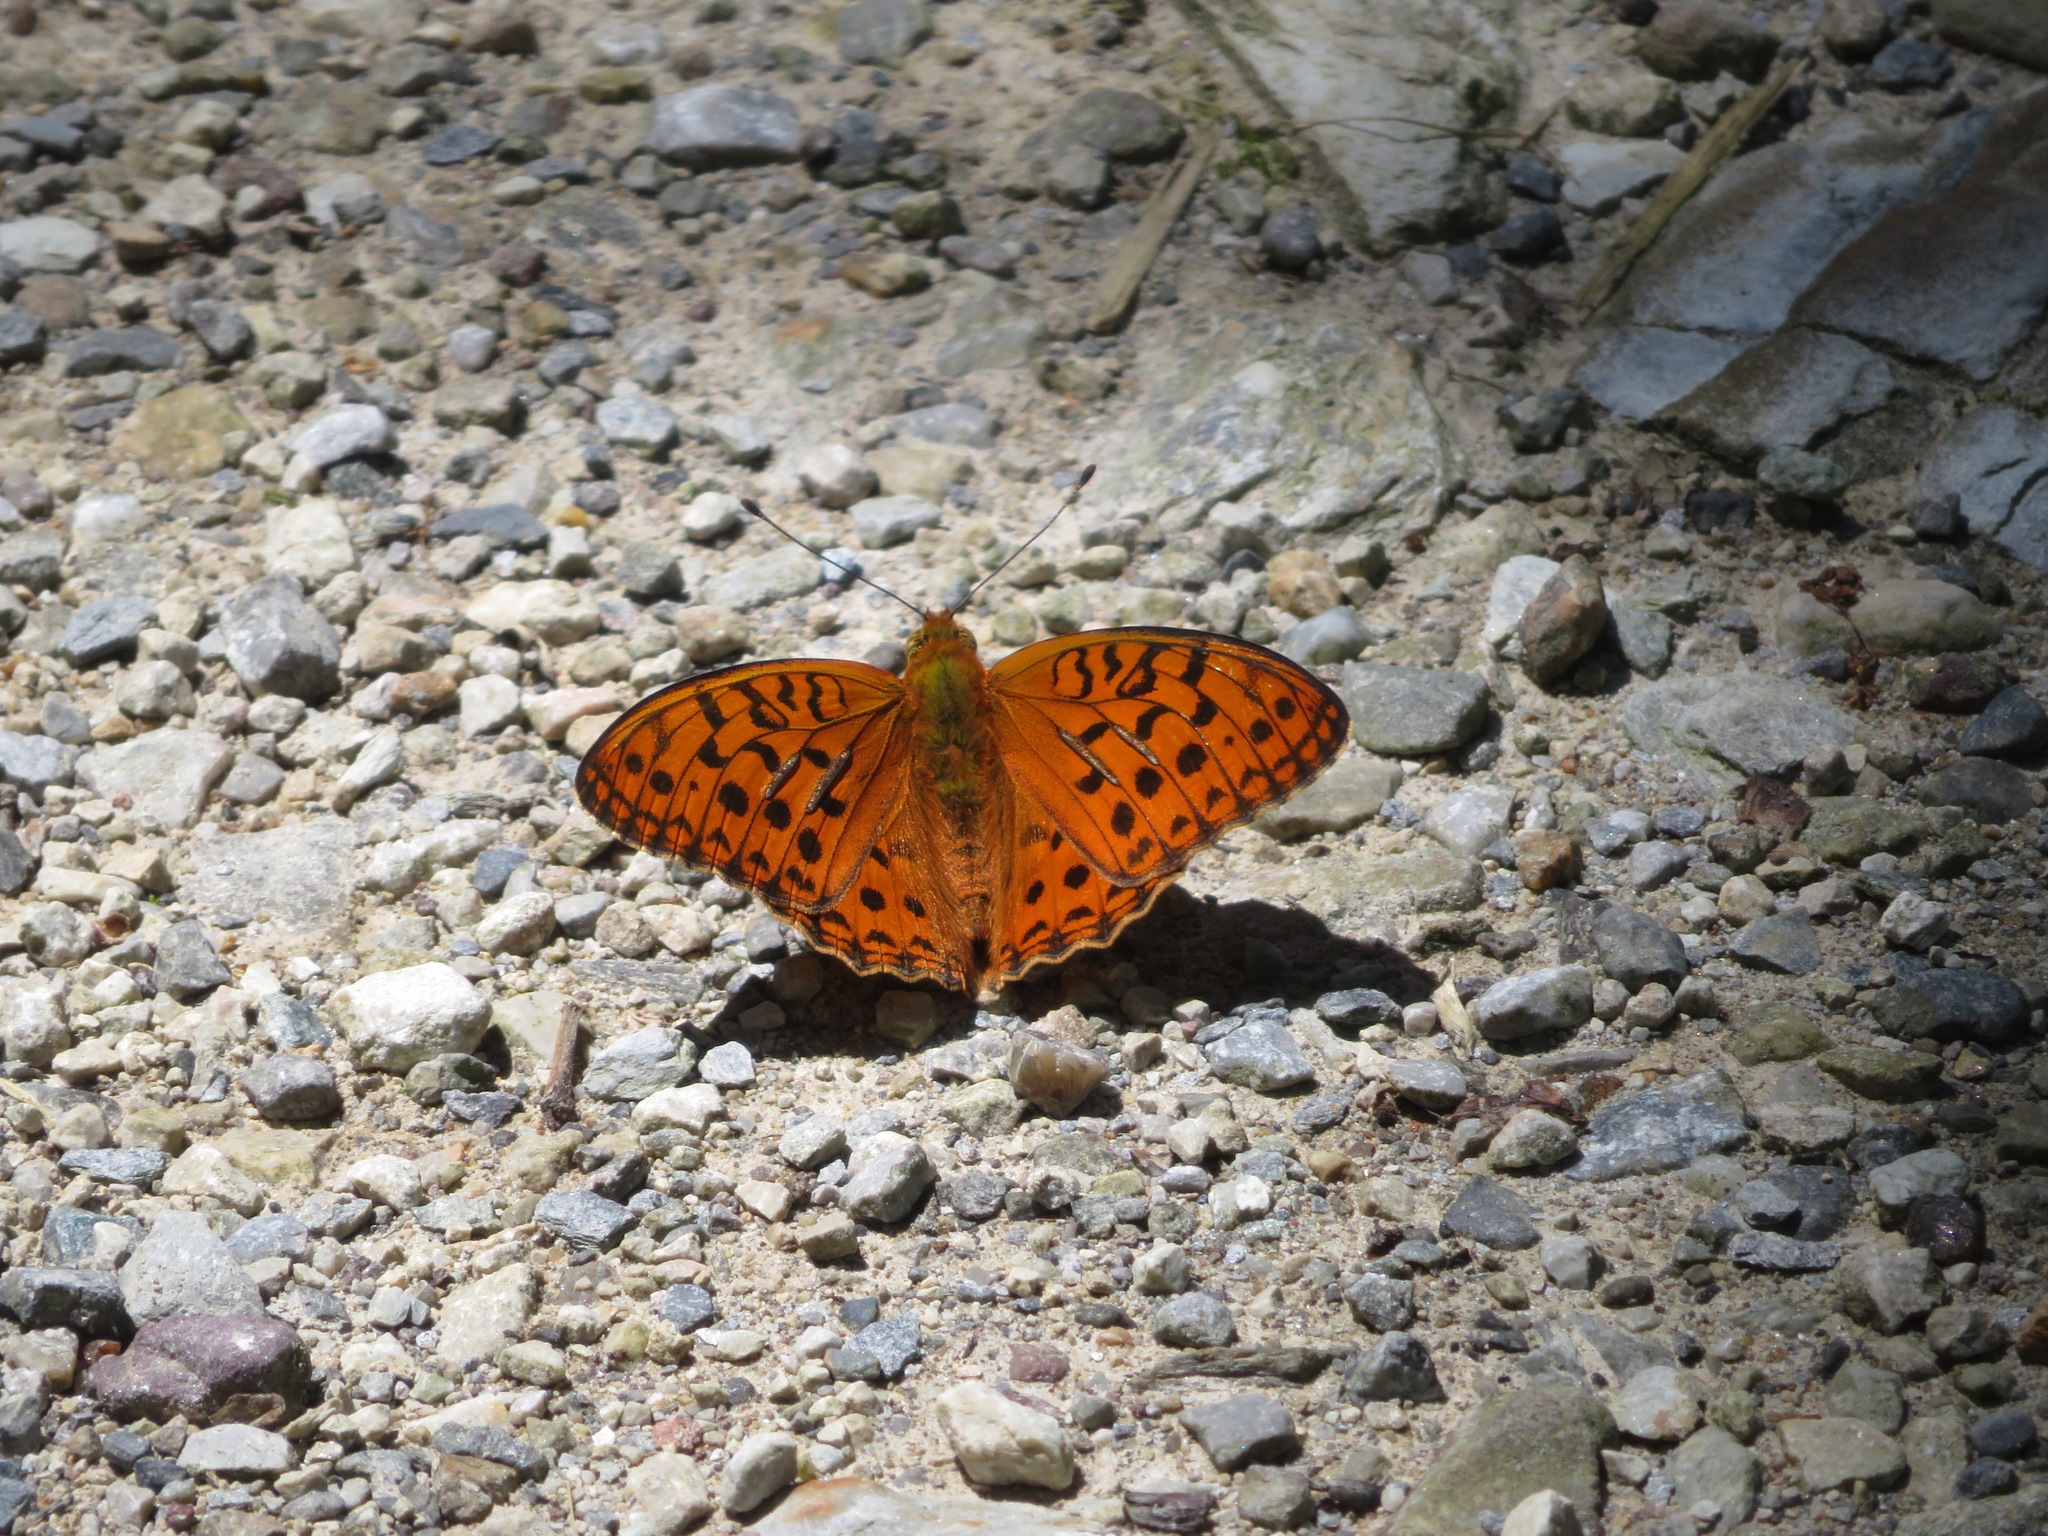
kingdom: Animalia
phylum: Arthropoda
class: Insecta
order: Lepidoptera
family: Nymphalidae
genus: Fabriciana
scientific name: Fabriciana adippe
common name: High brown fritillary
